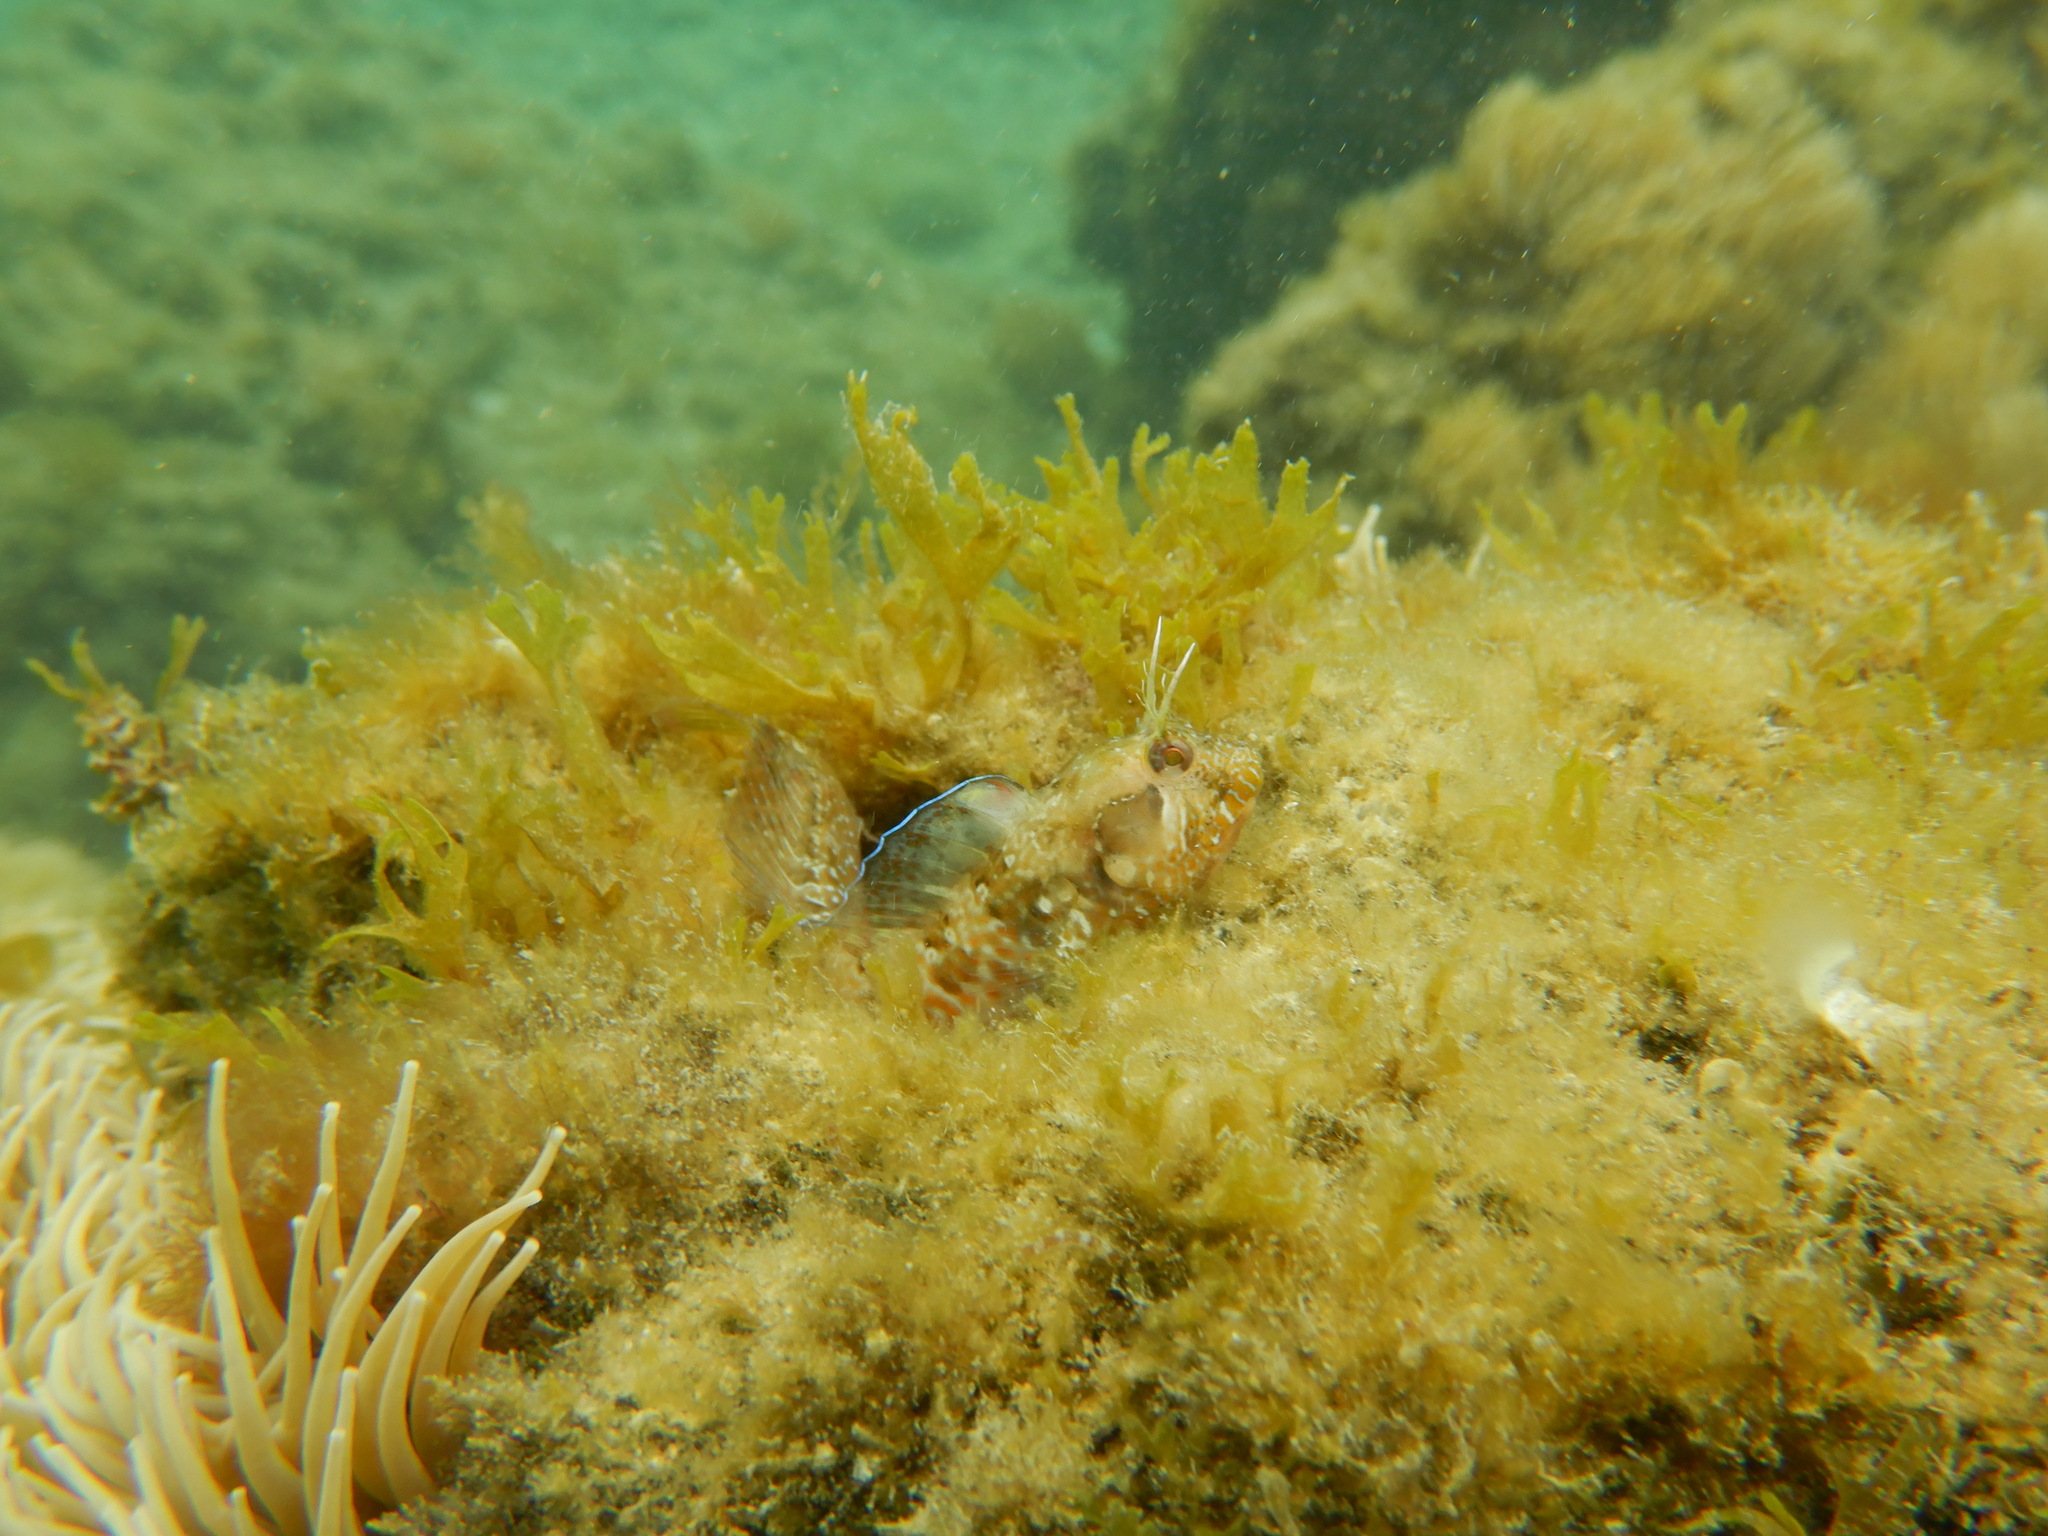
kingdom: Animalia
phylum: Chordata
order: Perciformes
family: Blenniidae
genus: Parablennius
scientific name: Parablennius incognitus
